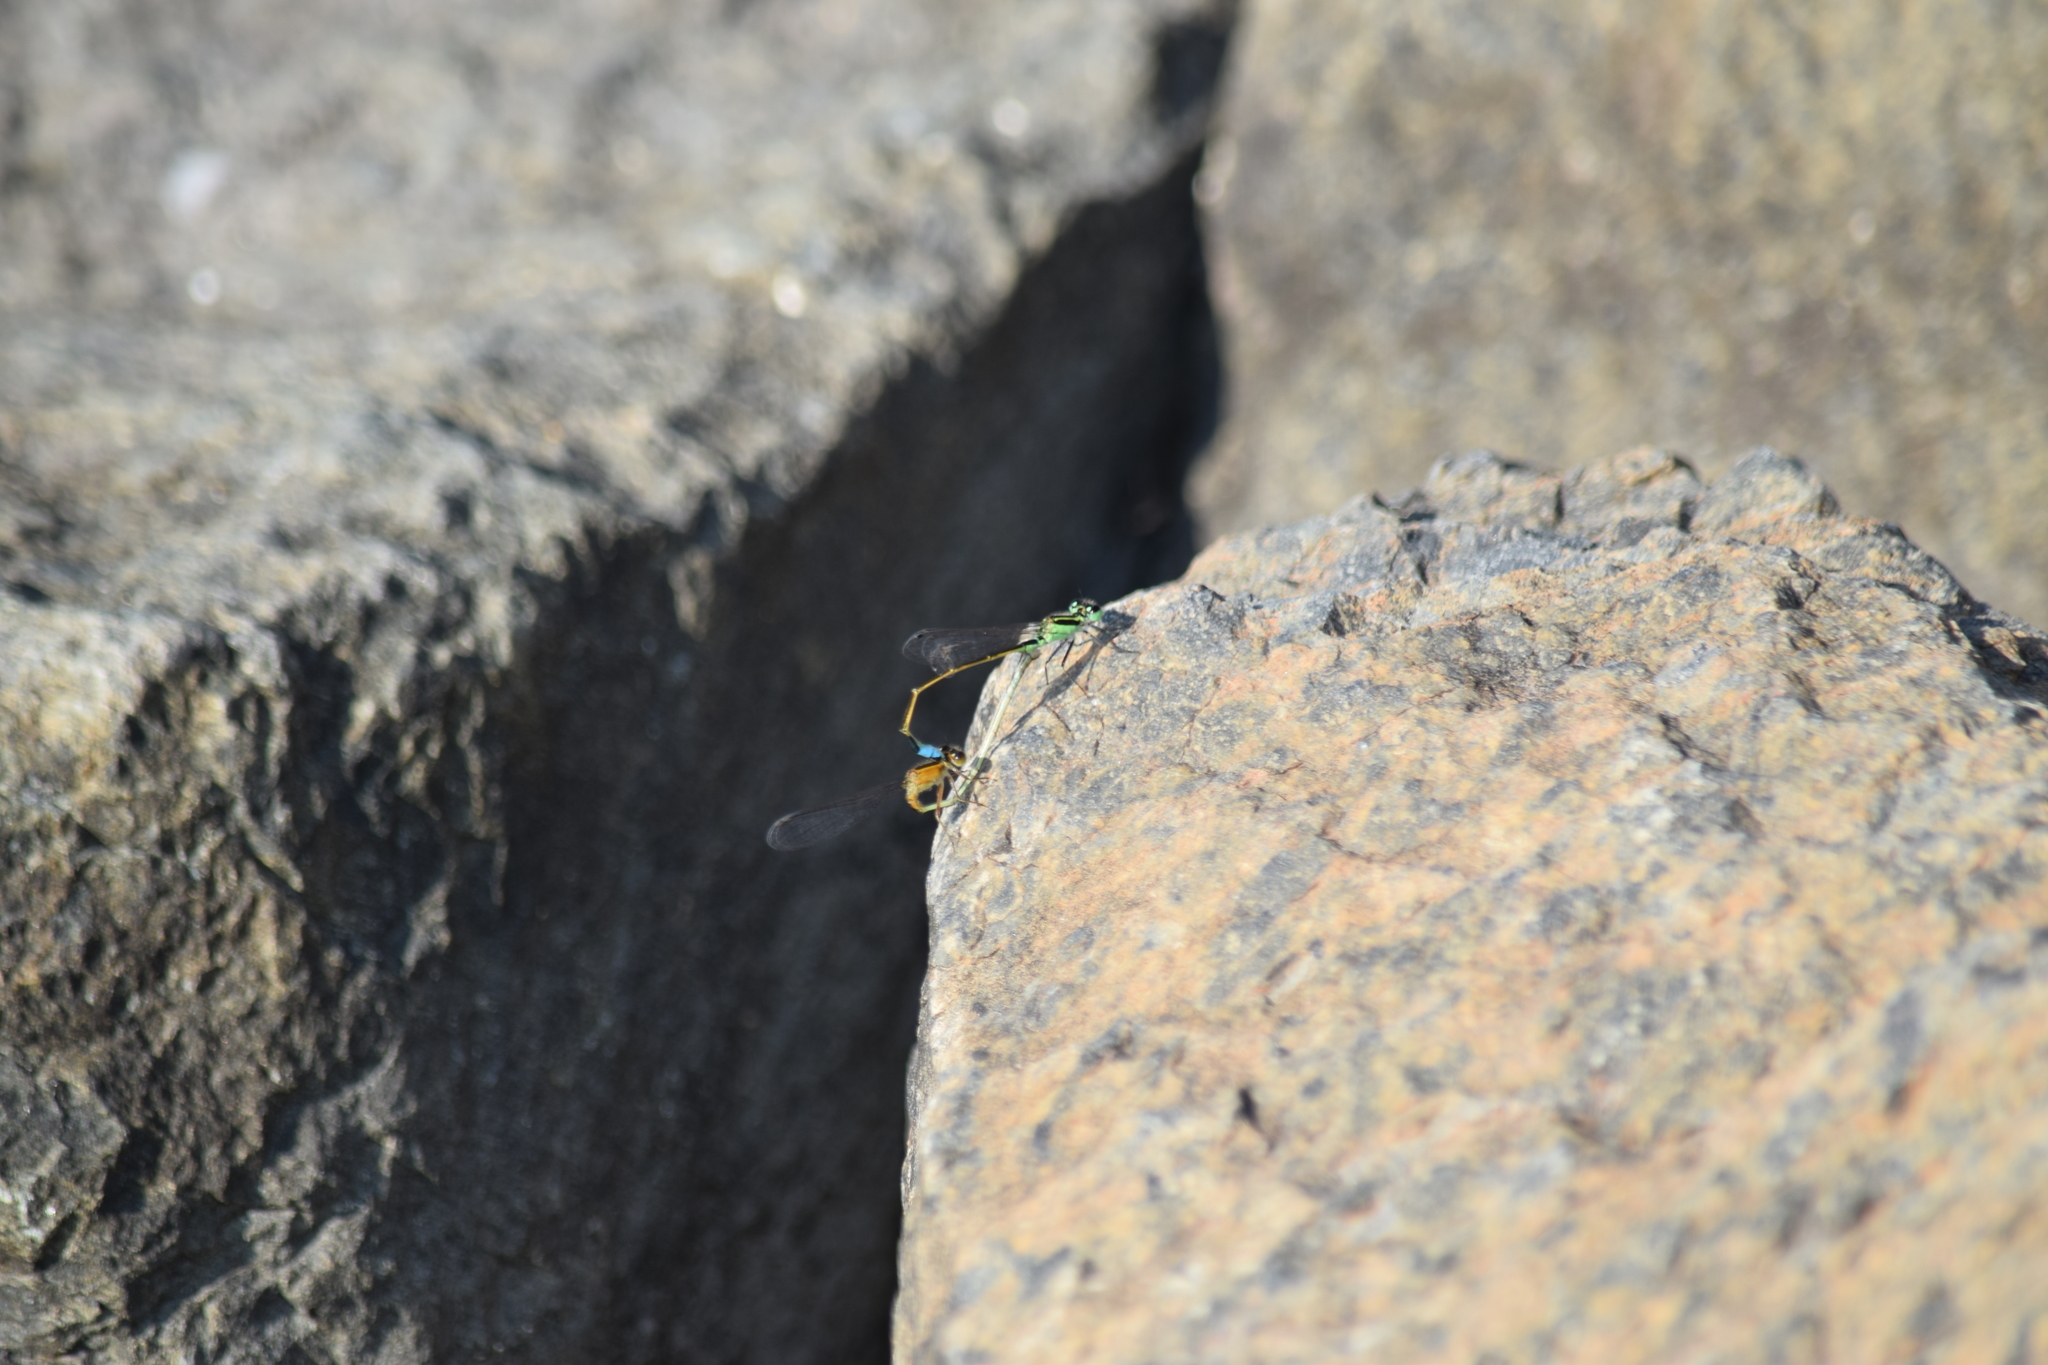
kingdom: Animalia
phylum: Arthropoda
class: Insecta
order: Odonata
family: Coenagrionidae
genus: Ischnura
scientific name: Ischnura ramburii
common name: Rambur's forktail
